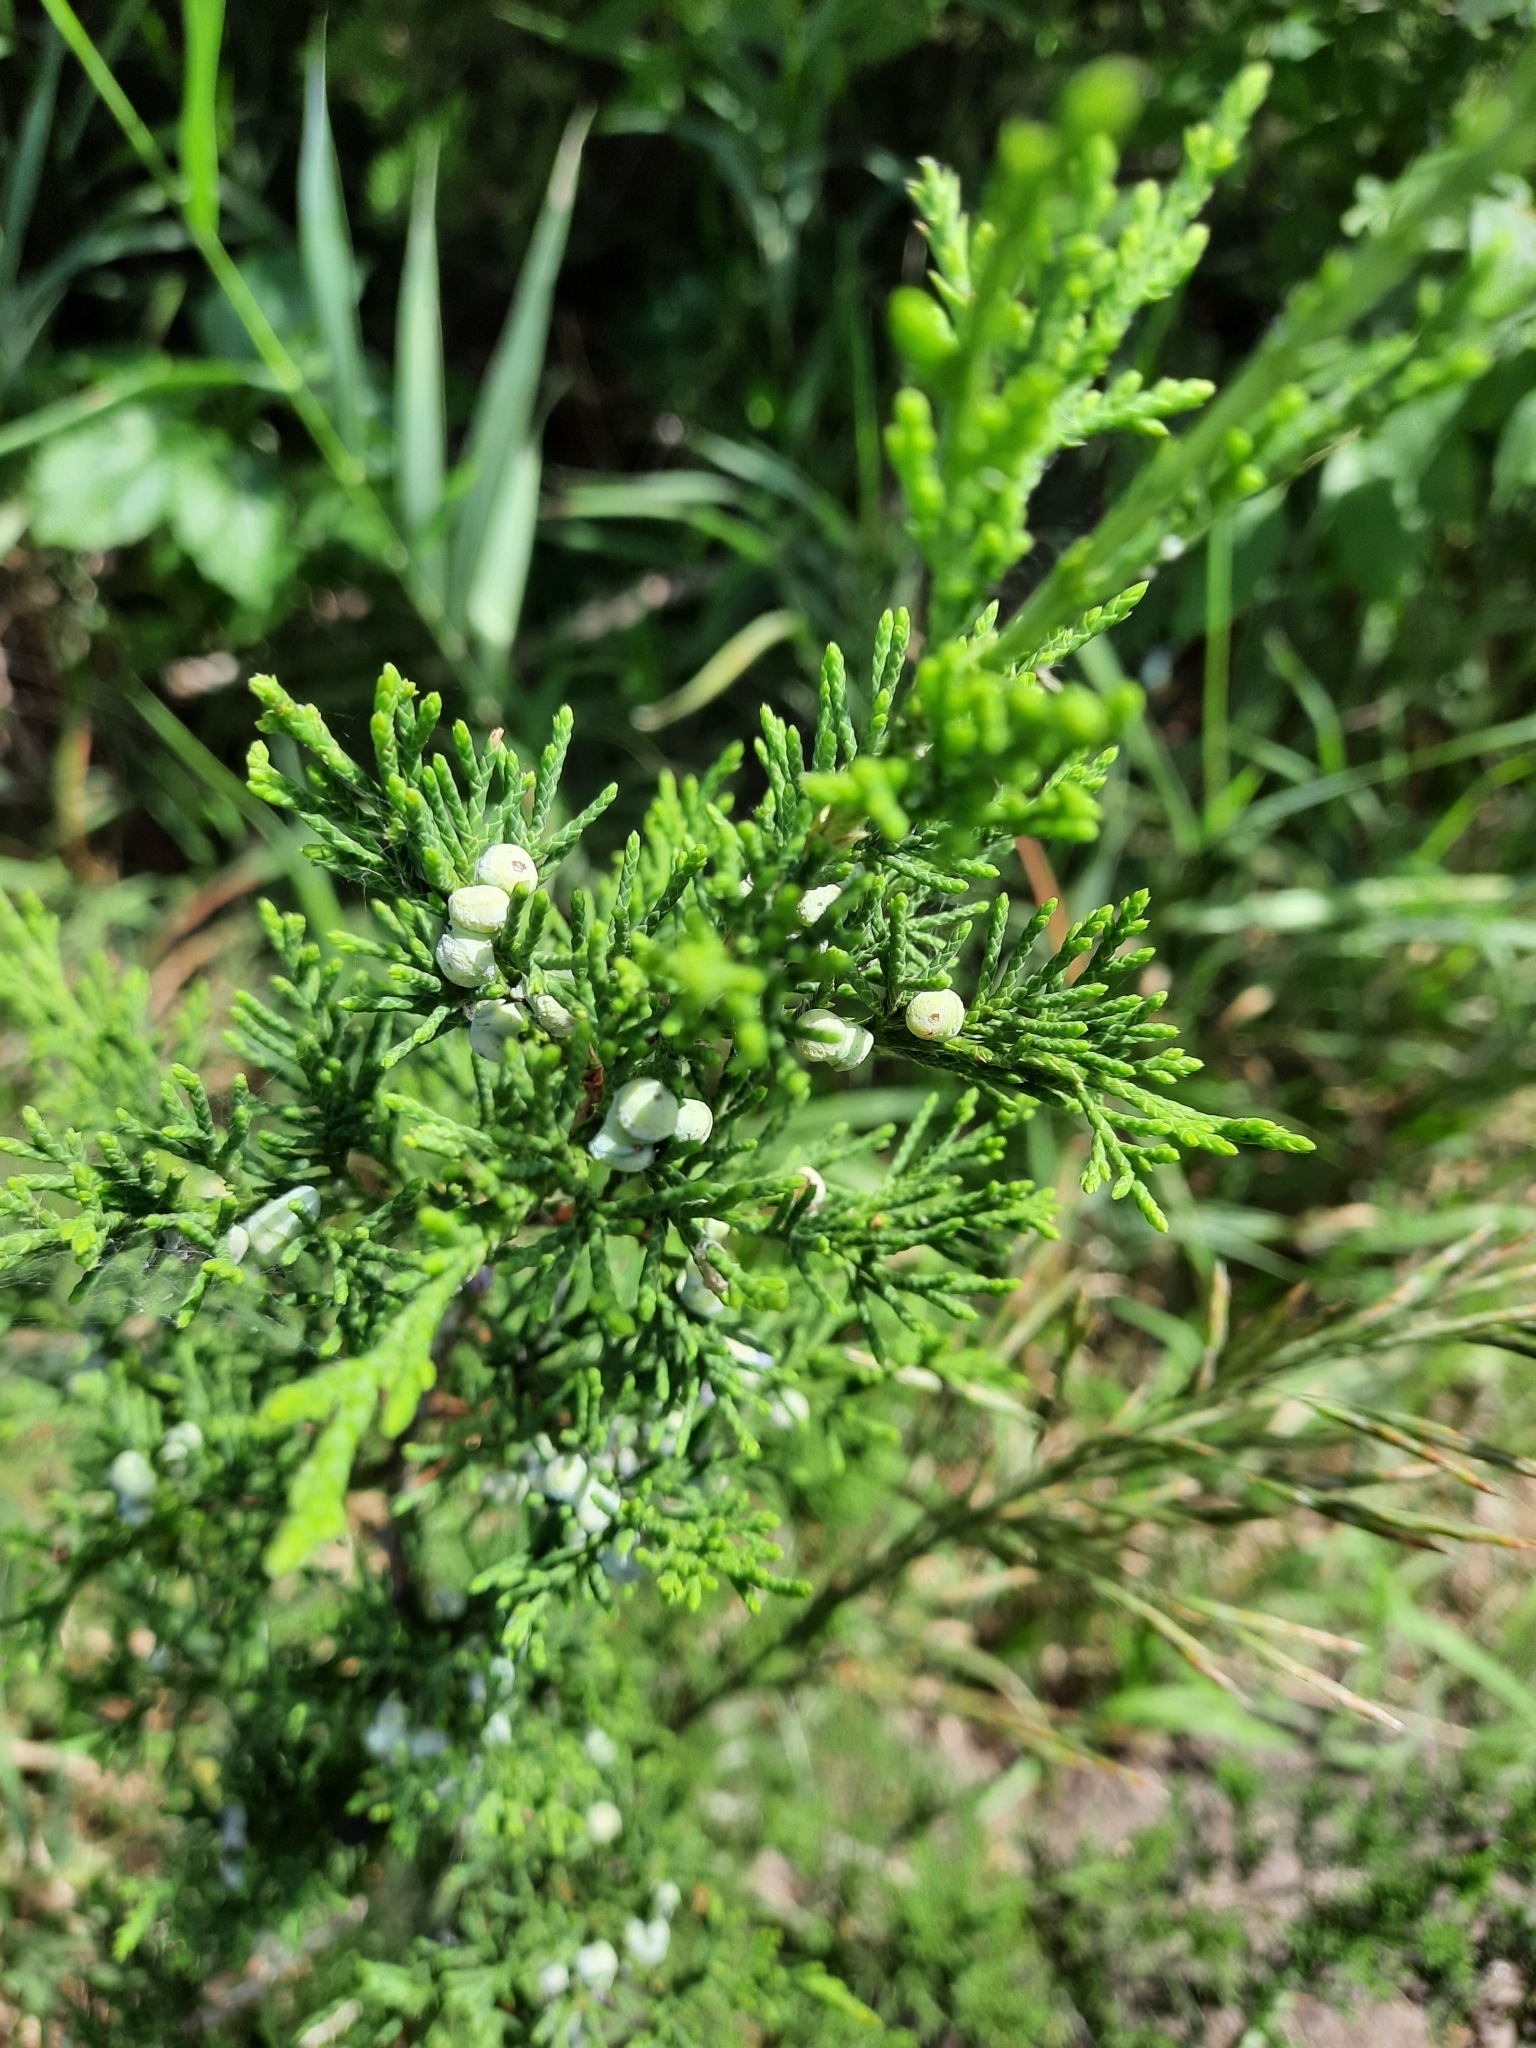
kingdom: Plantae
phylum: Tracheophyta
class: Pinopsida
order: Pinales
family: Cupressaceae
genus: Juniperus
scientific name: Juniperus virginiana
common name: Red juniper
